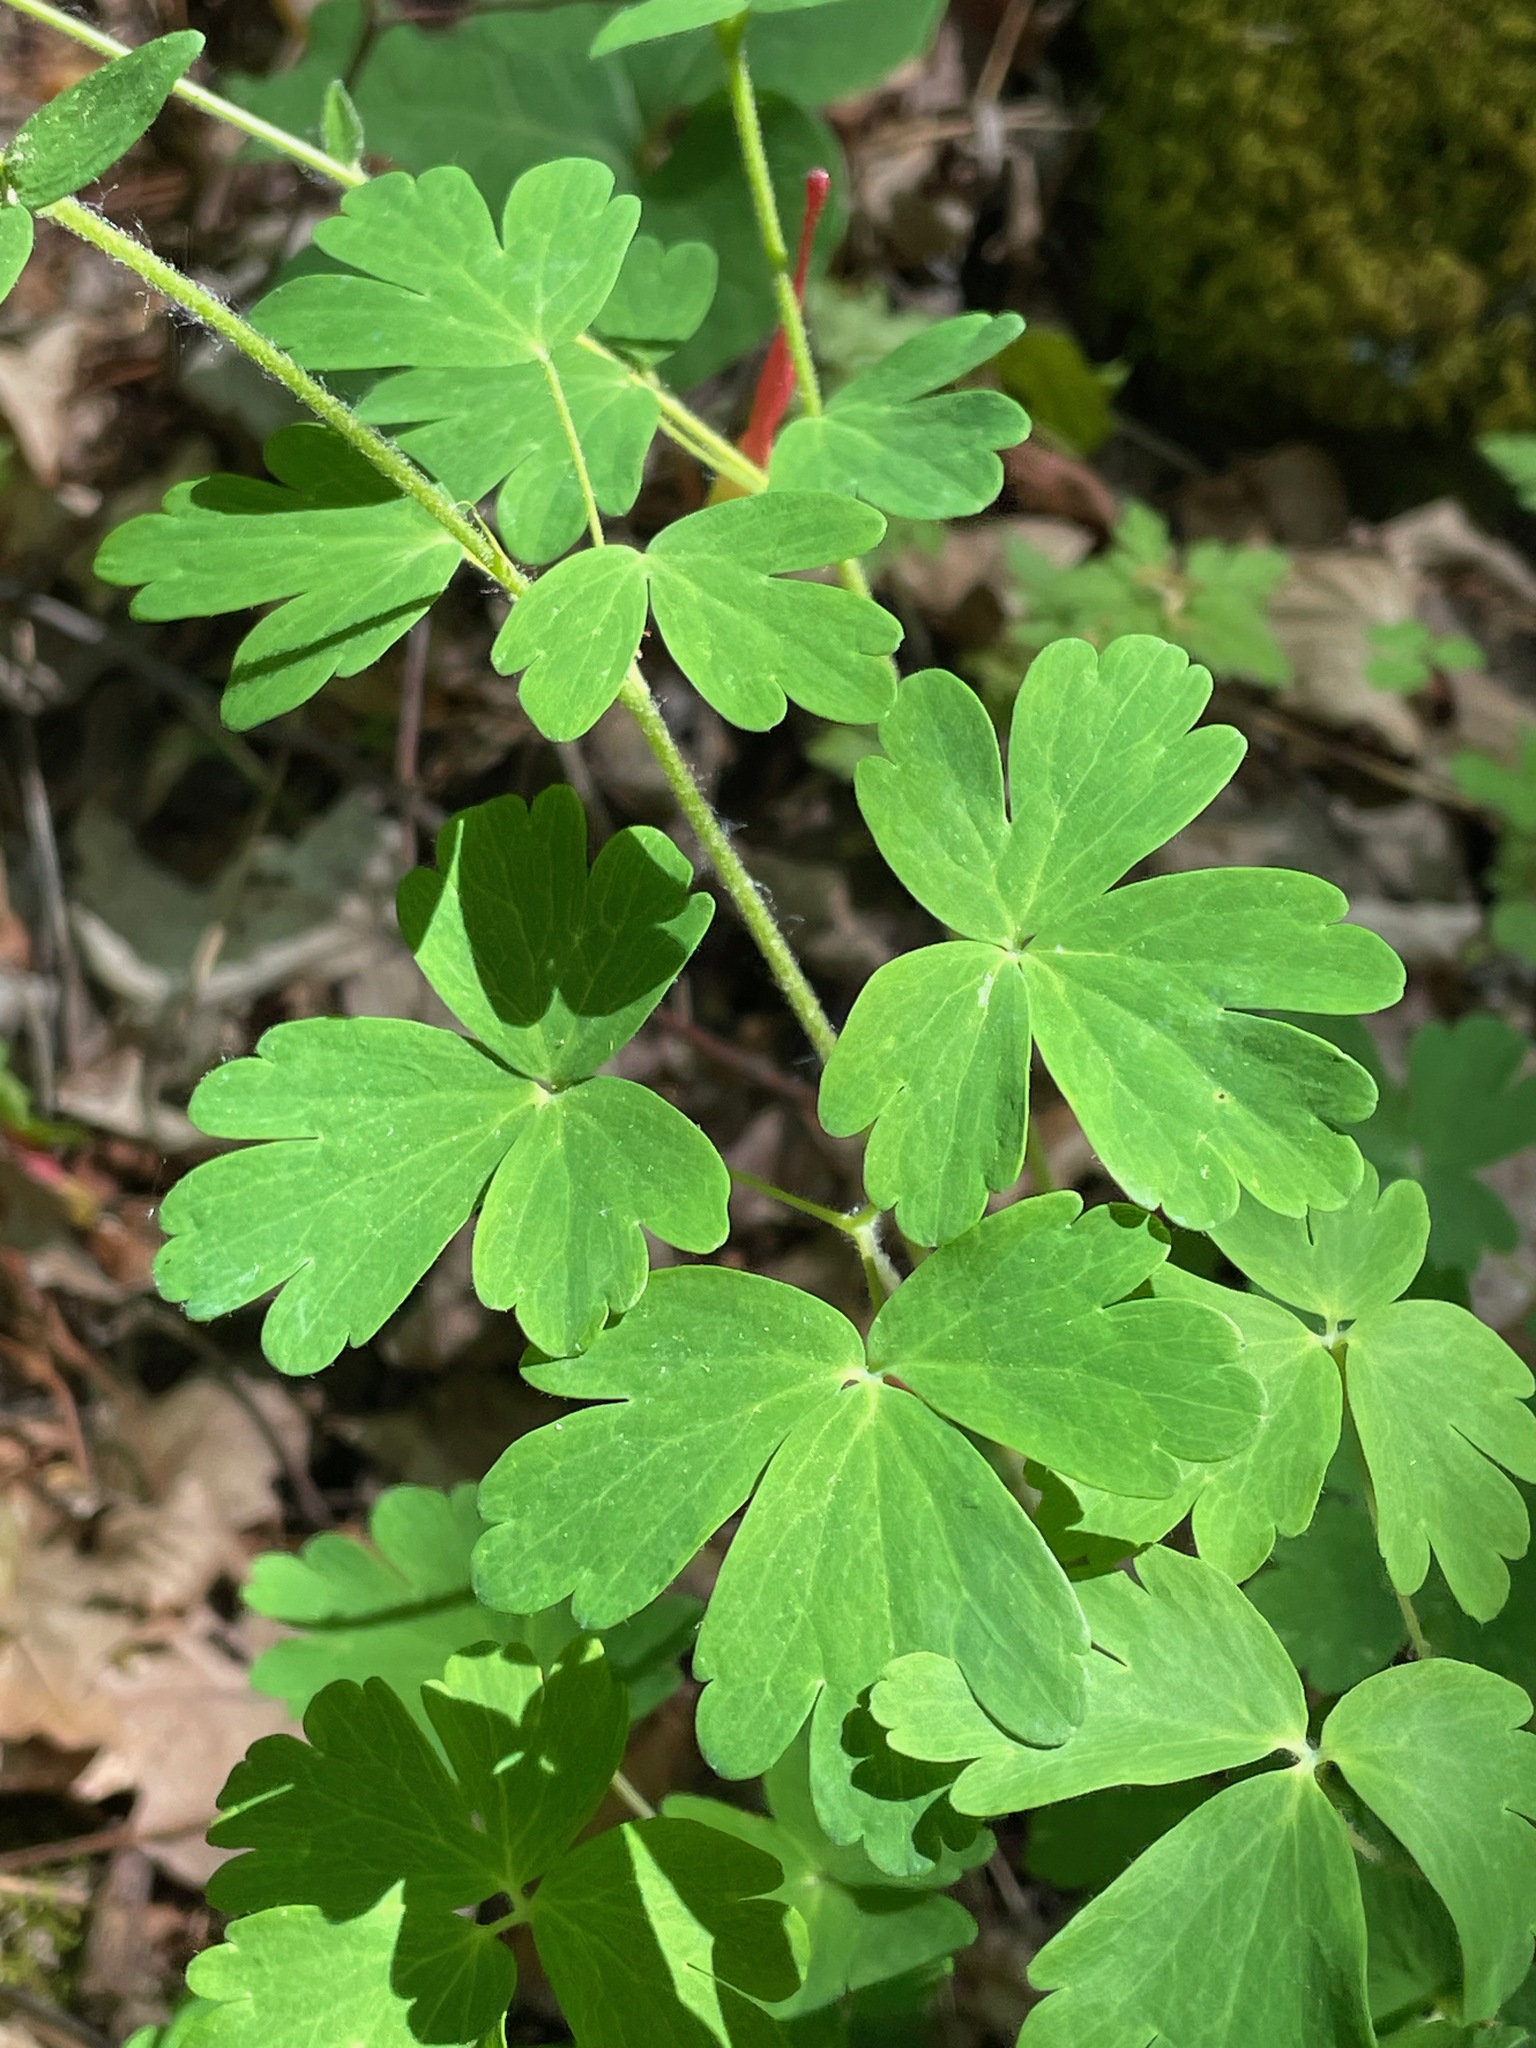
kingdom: Plantae
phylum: Tracheophyta
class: Magnoliopsida
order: Ranunculales
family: Ranunculaceae
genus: Aquilegia
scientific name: Aquilegia canadensis
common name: American columbine
